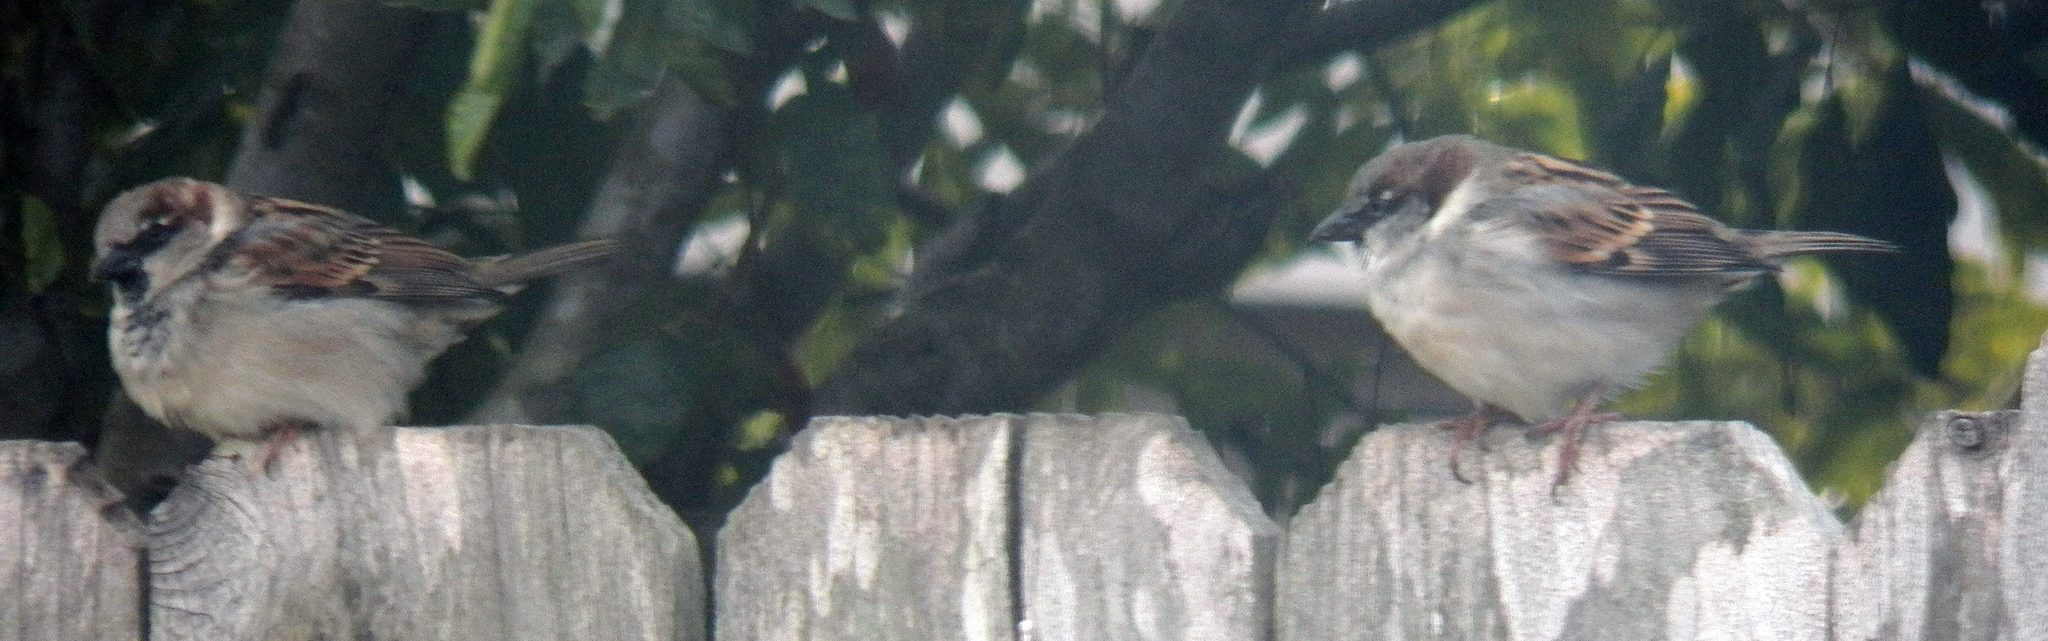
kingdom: Animalia
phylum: Chordata
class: Aves
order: Passeriformes
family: Passeridae
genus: Passer
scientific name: Passer domesticus
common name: House sparrow
